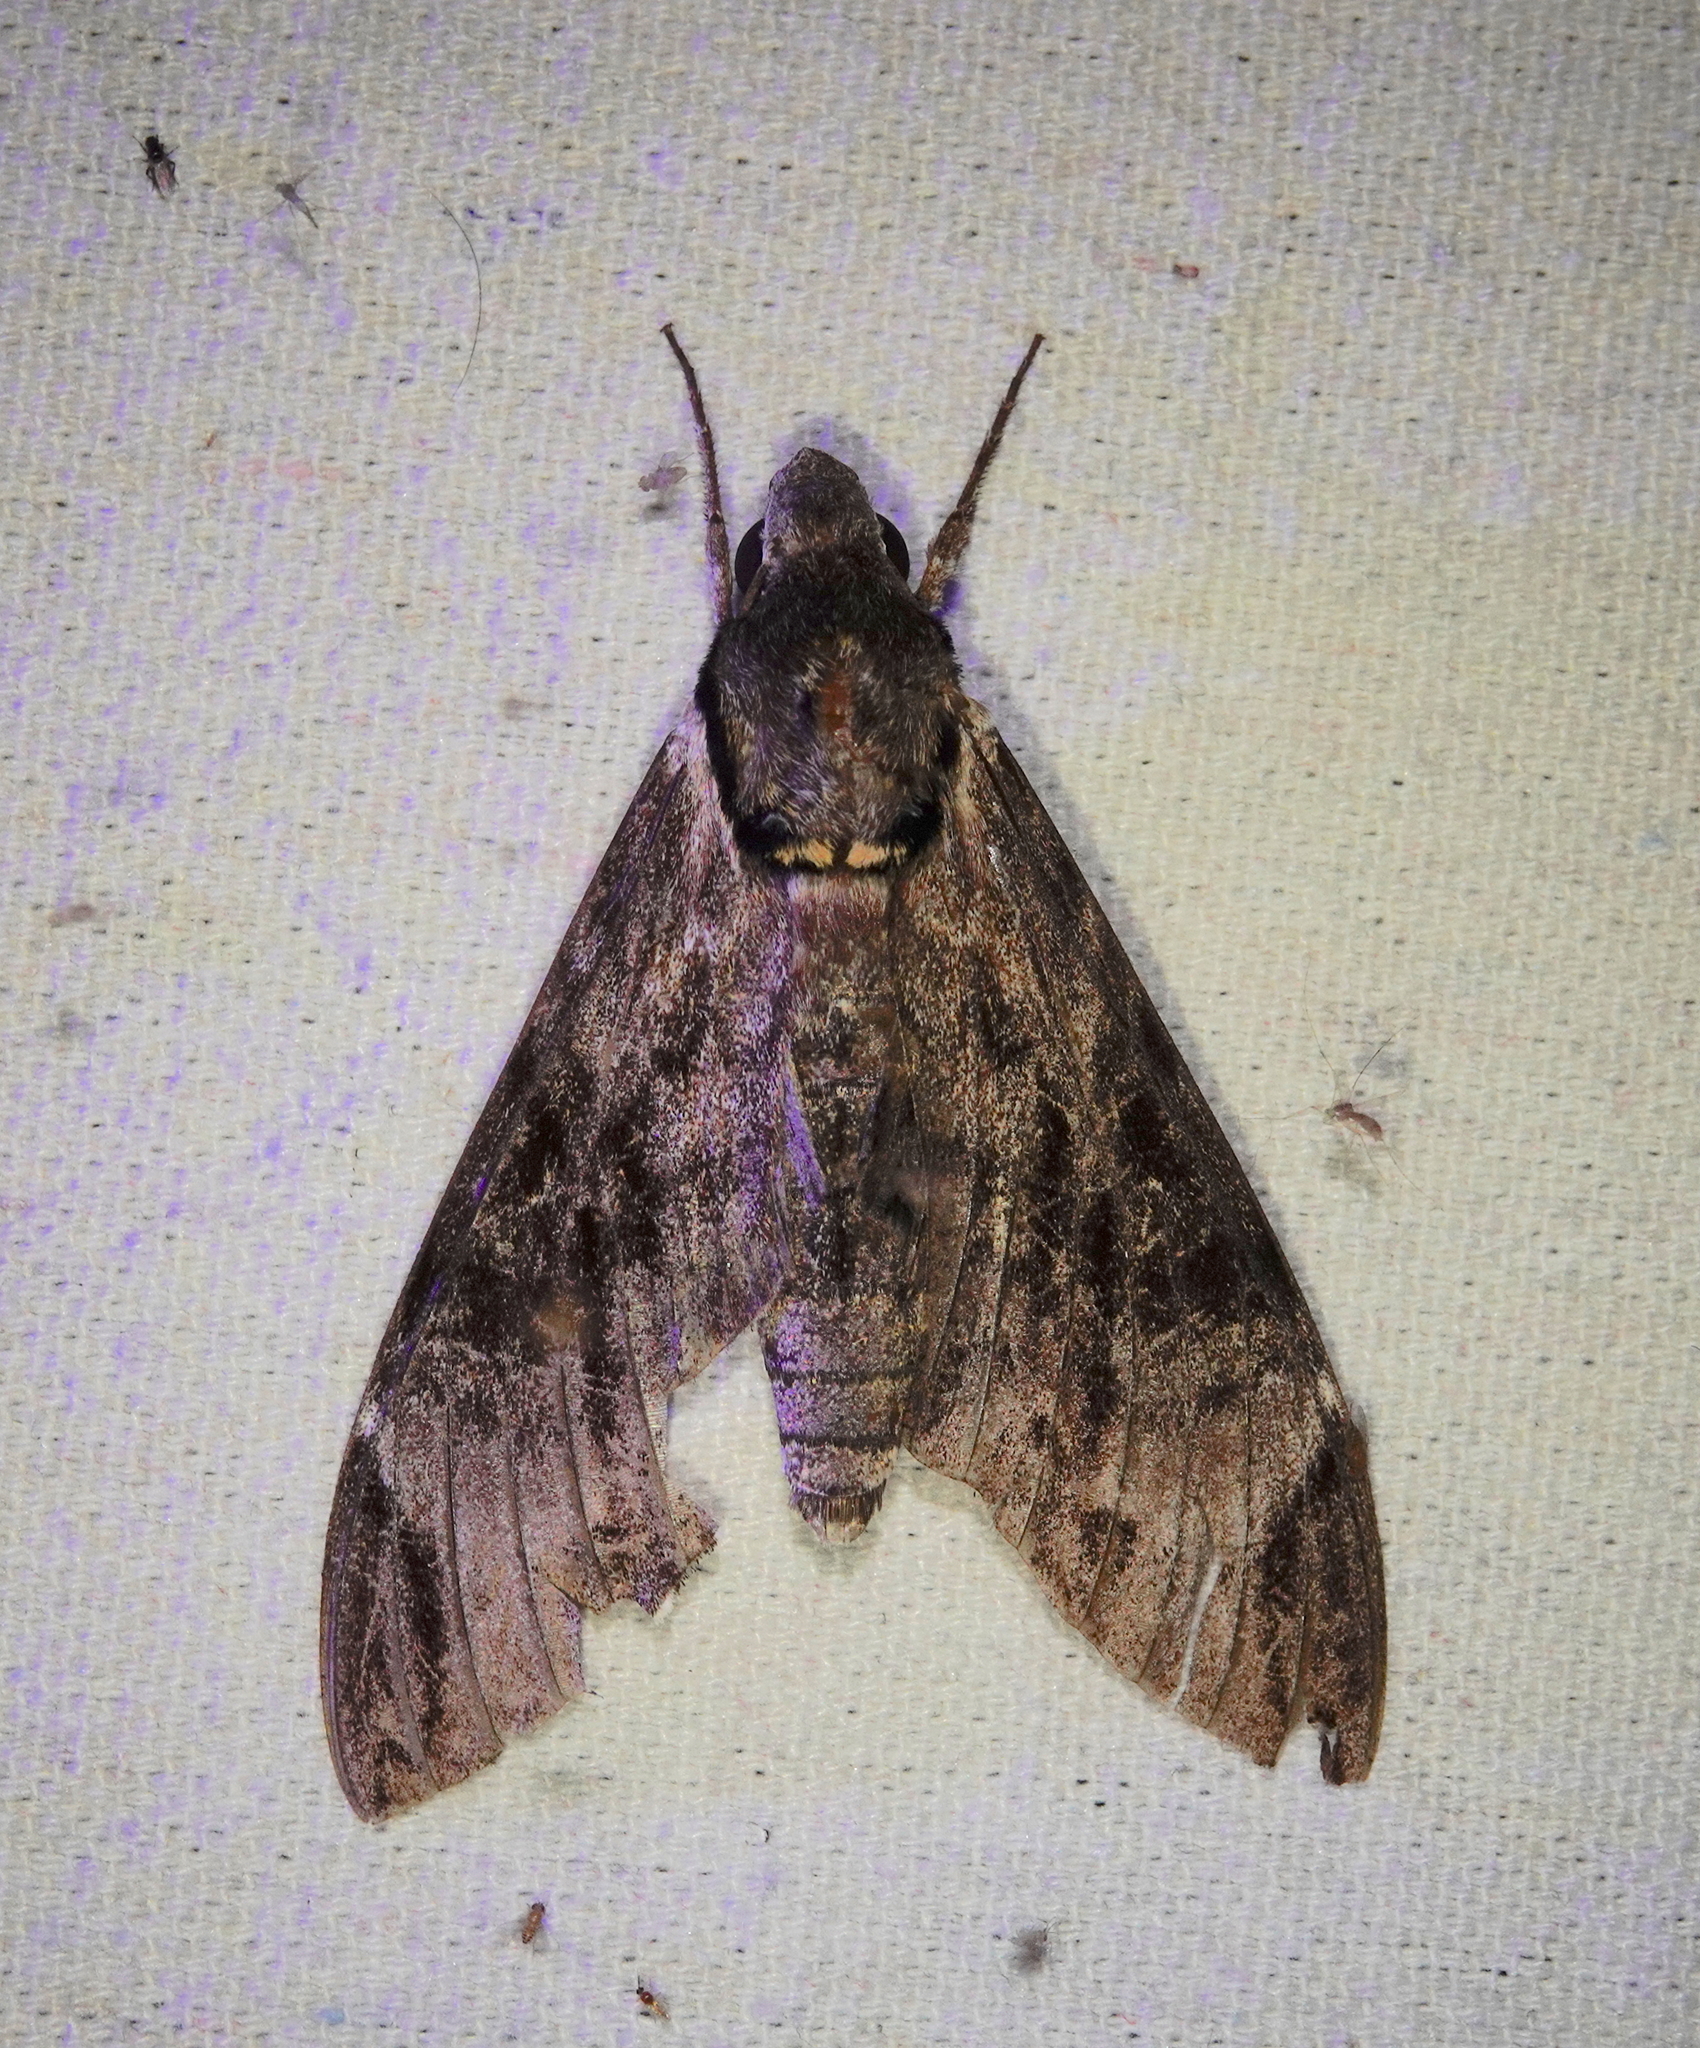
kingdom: Animalia
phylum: Arthropoda
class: Insecta
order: Lepidoptera
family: Sphingidae
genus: Psilogramma
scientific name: Psilogramma vates
